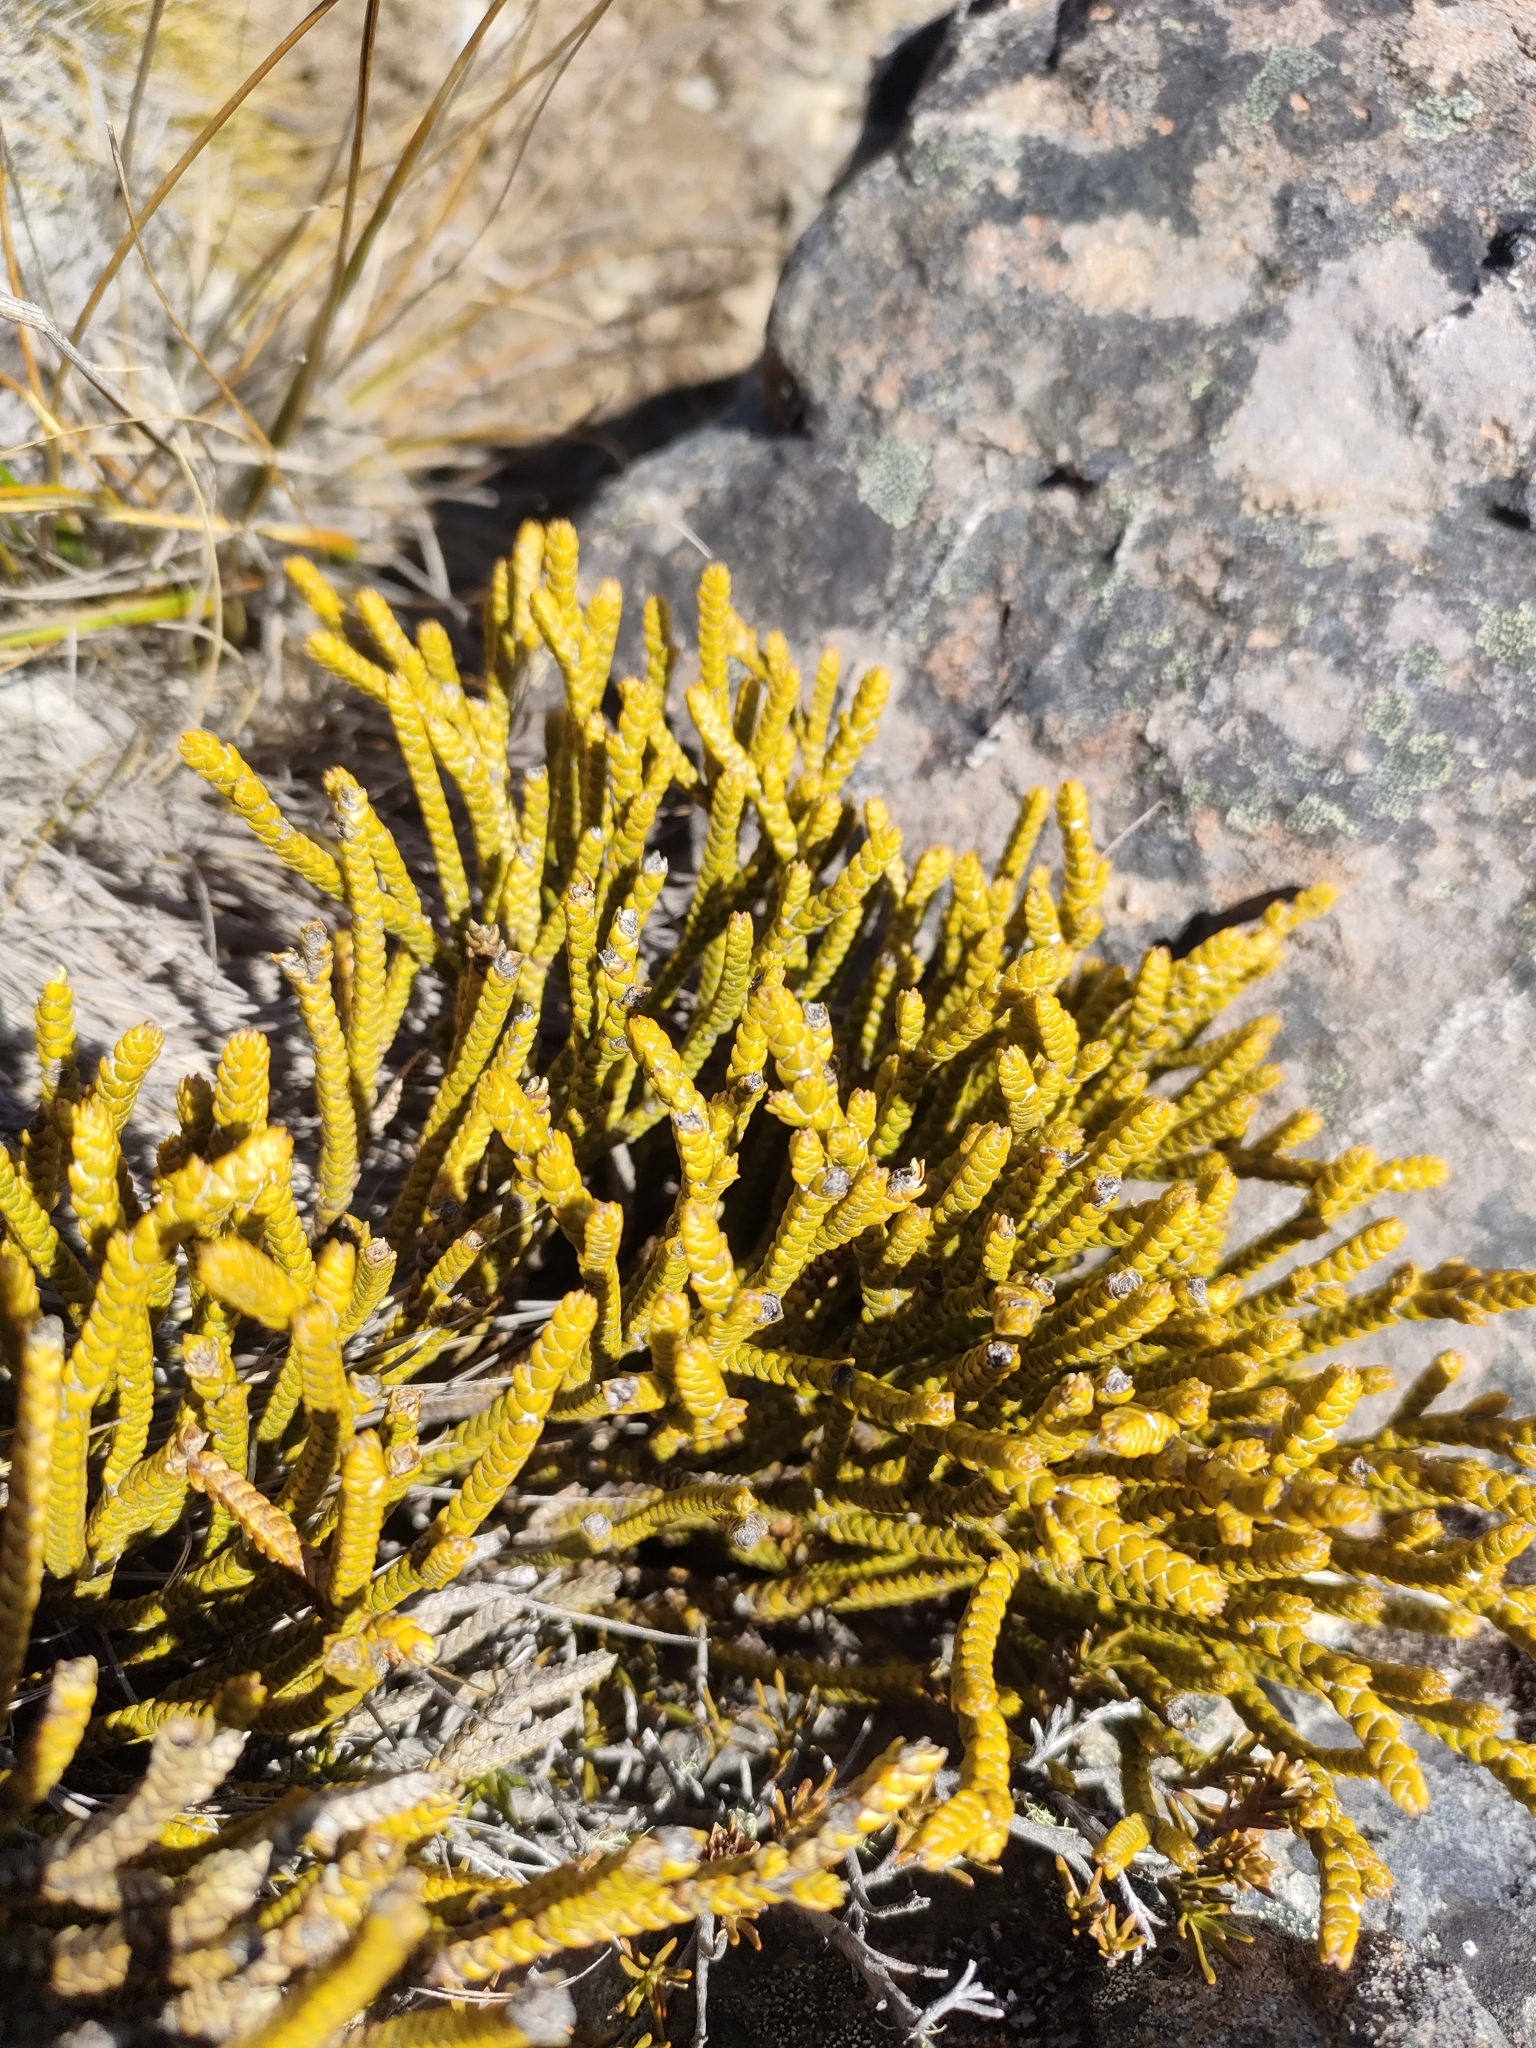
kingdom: Plantae
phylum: Tracheophyta
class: Magnoliopsida
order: Lamiales
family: Plantaginaceae
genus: Veronica
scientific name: Veronica lycopodioides
